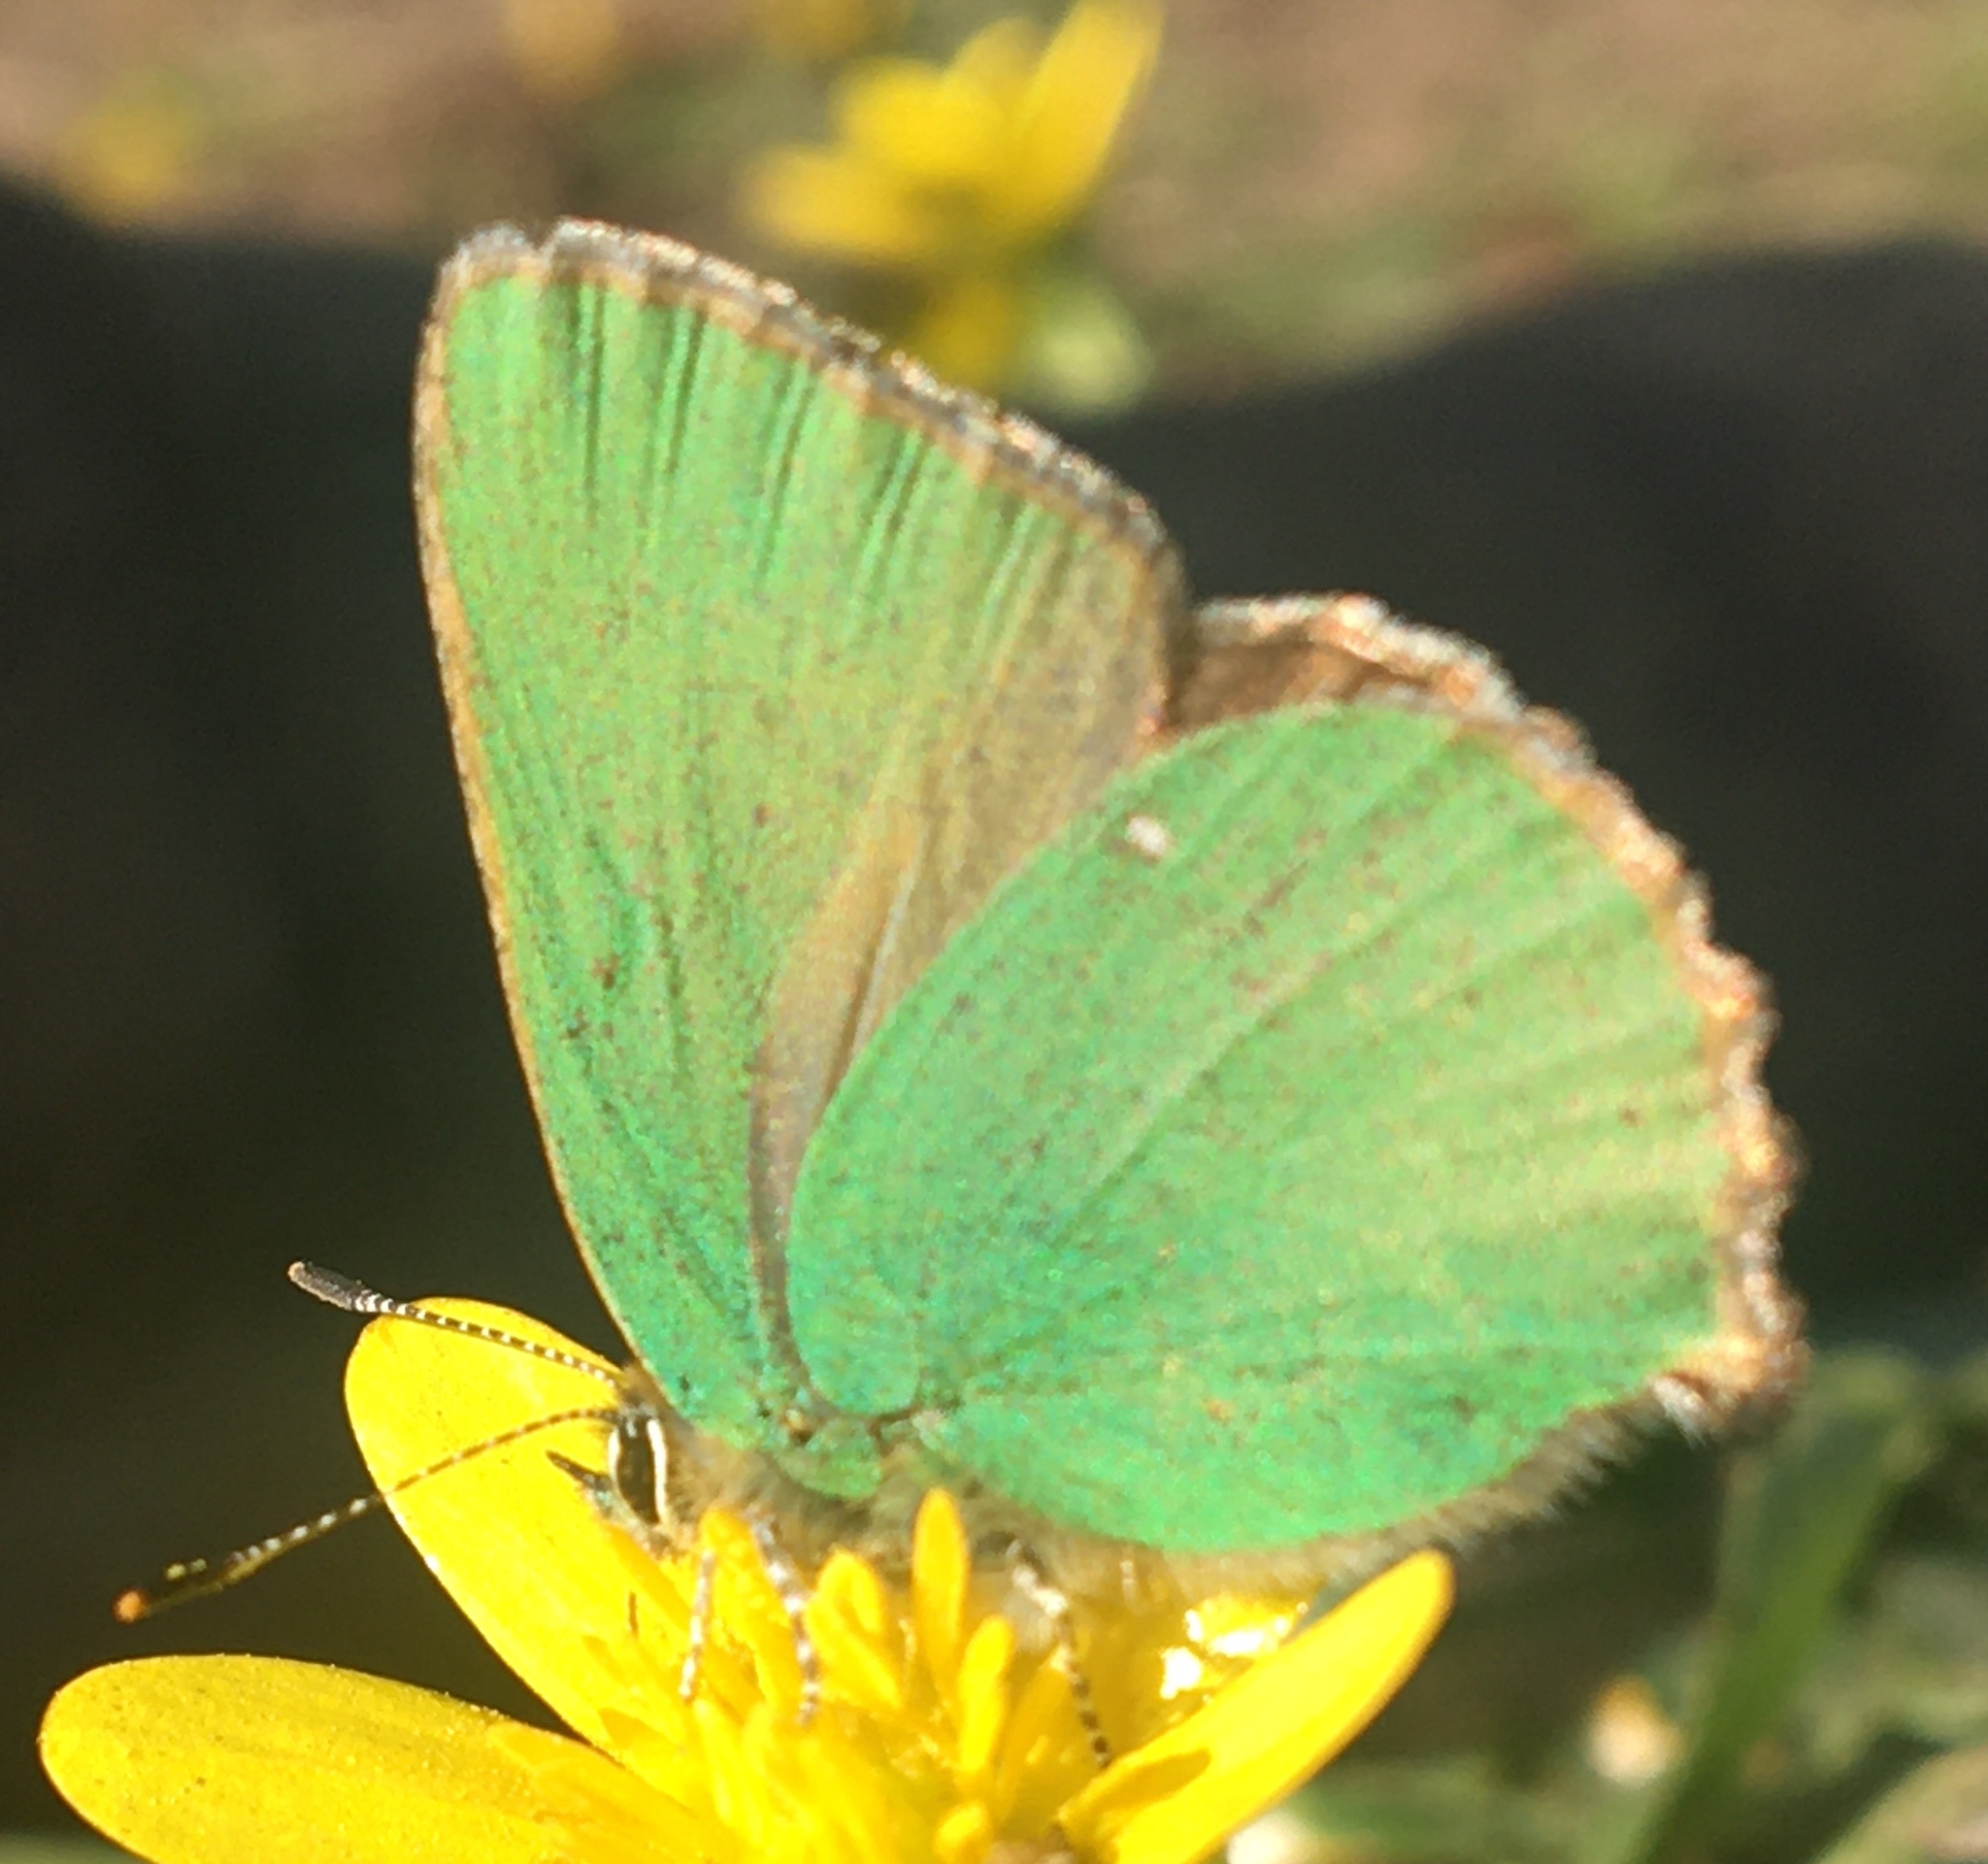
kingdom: Animalia
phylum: Arthropoda
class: Insecta
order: Lepidoptera
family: Lycaenidae
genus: Callophrys
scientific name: Callophrys rubi
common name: Green hairstreak
